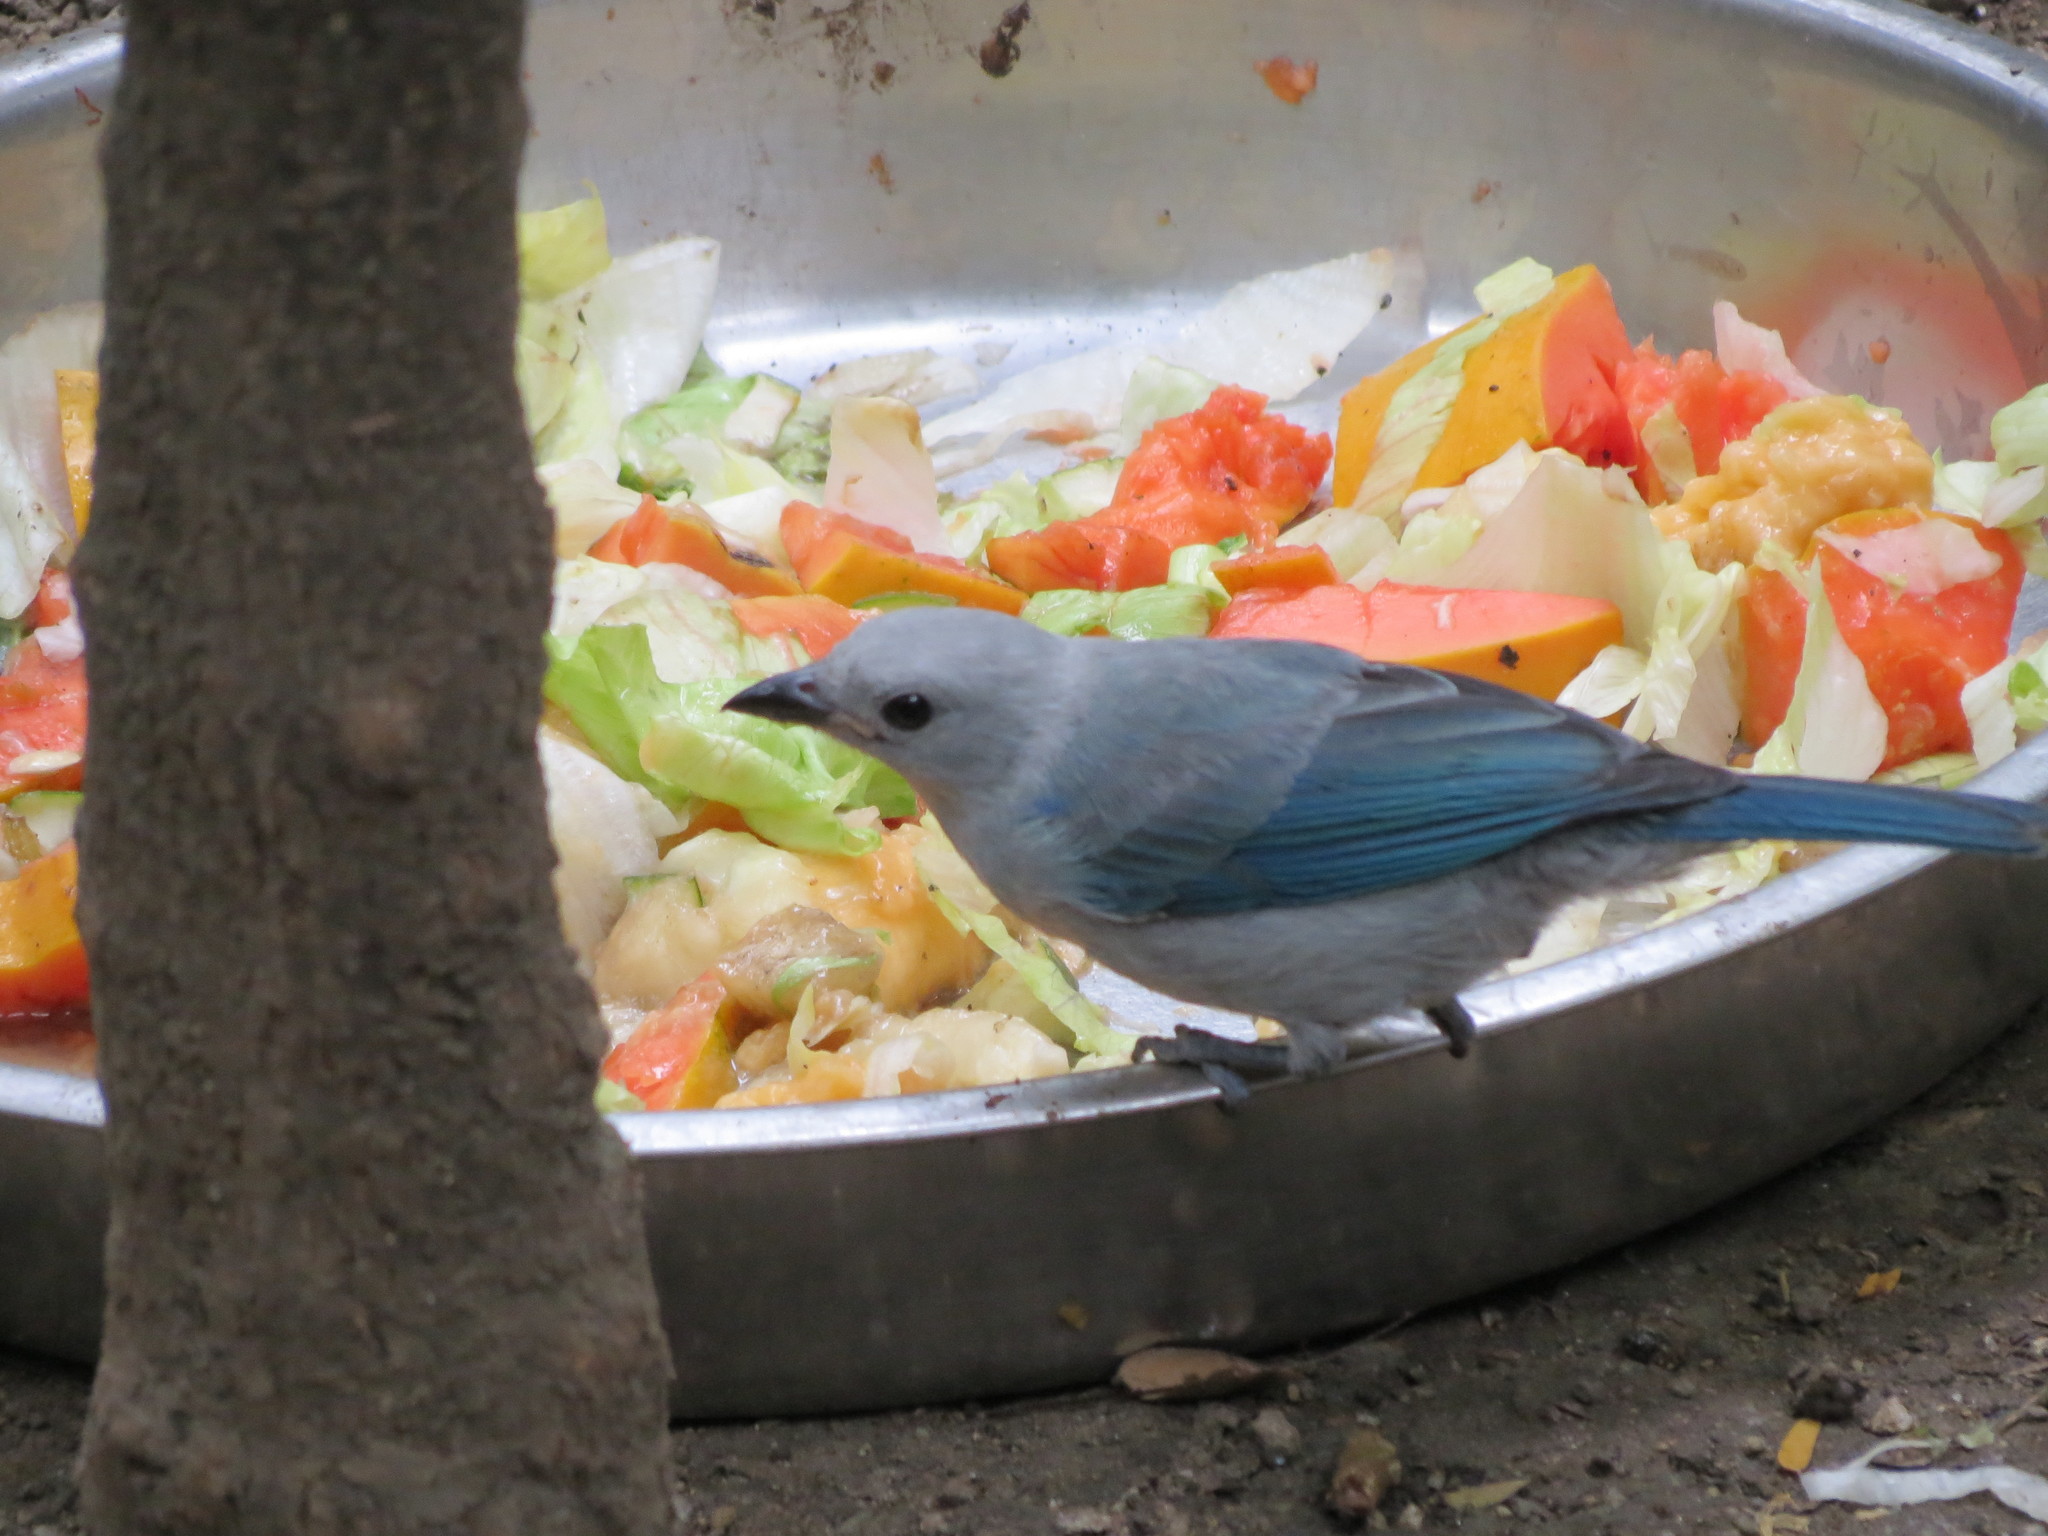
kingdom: Animalia
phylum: Chordata
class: Aves
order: Passeriformes
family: Thraupidae
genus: Thraupis
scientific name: Thraupis episcopus
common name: Blue-grey tanager
